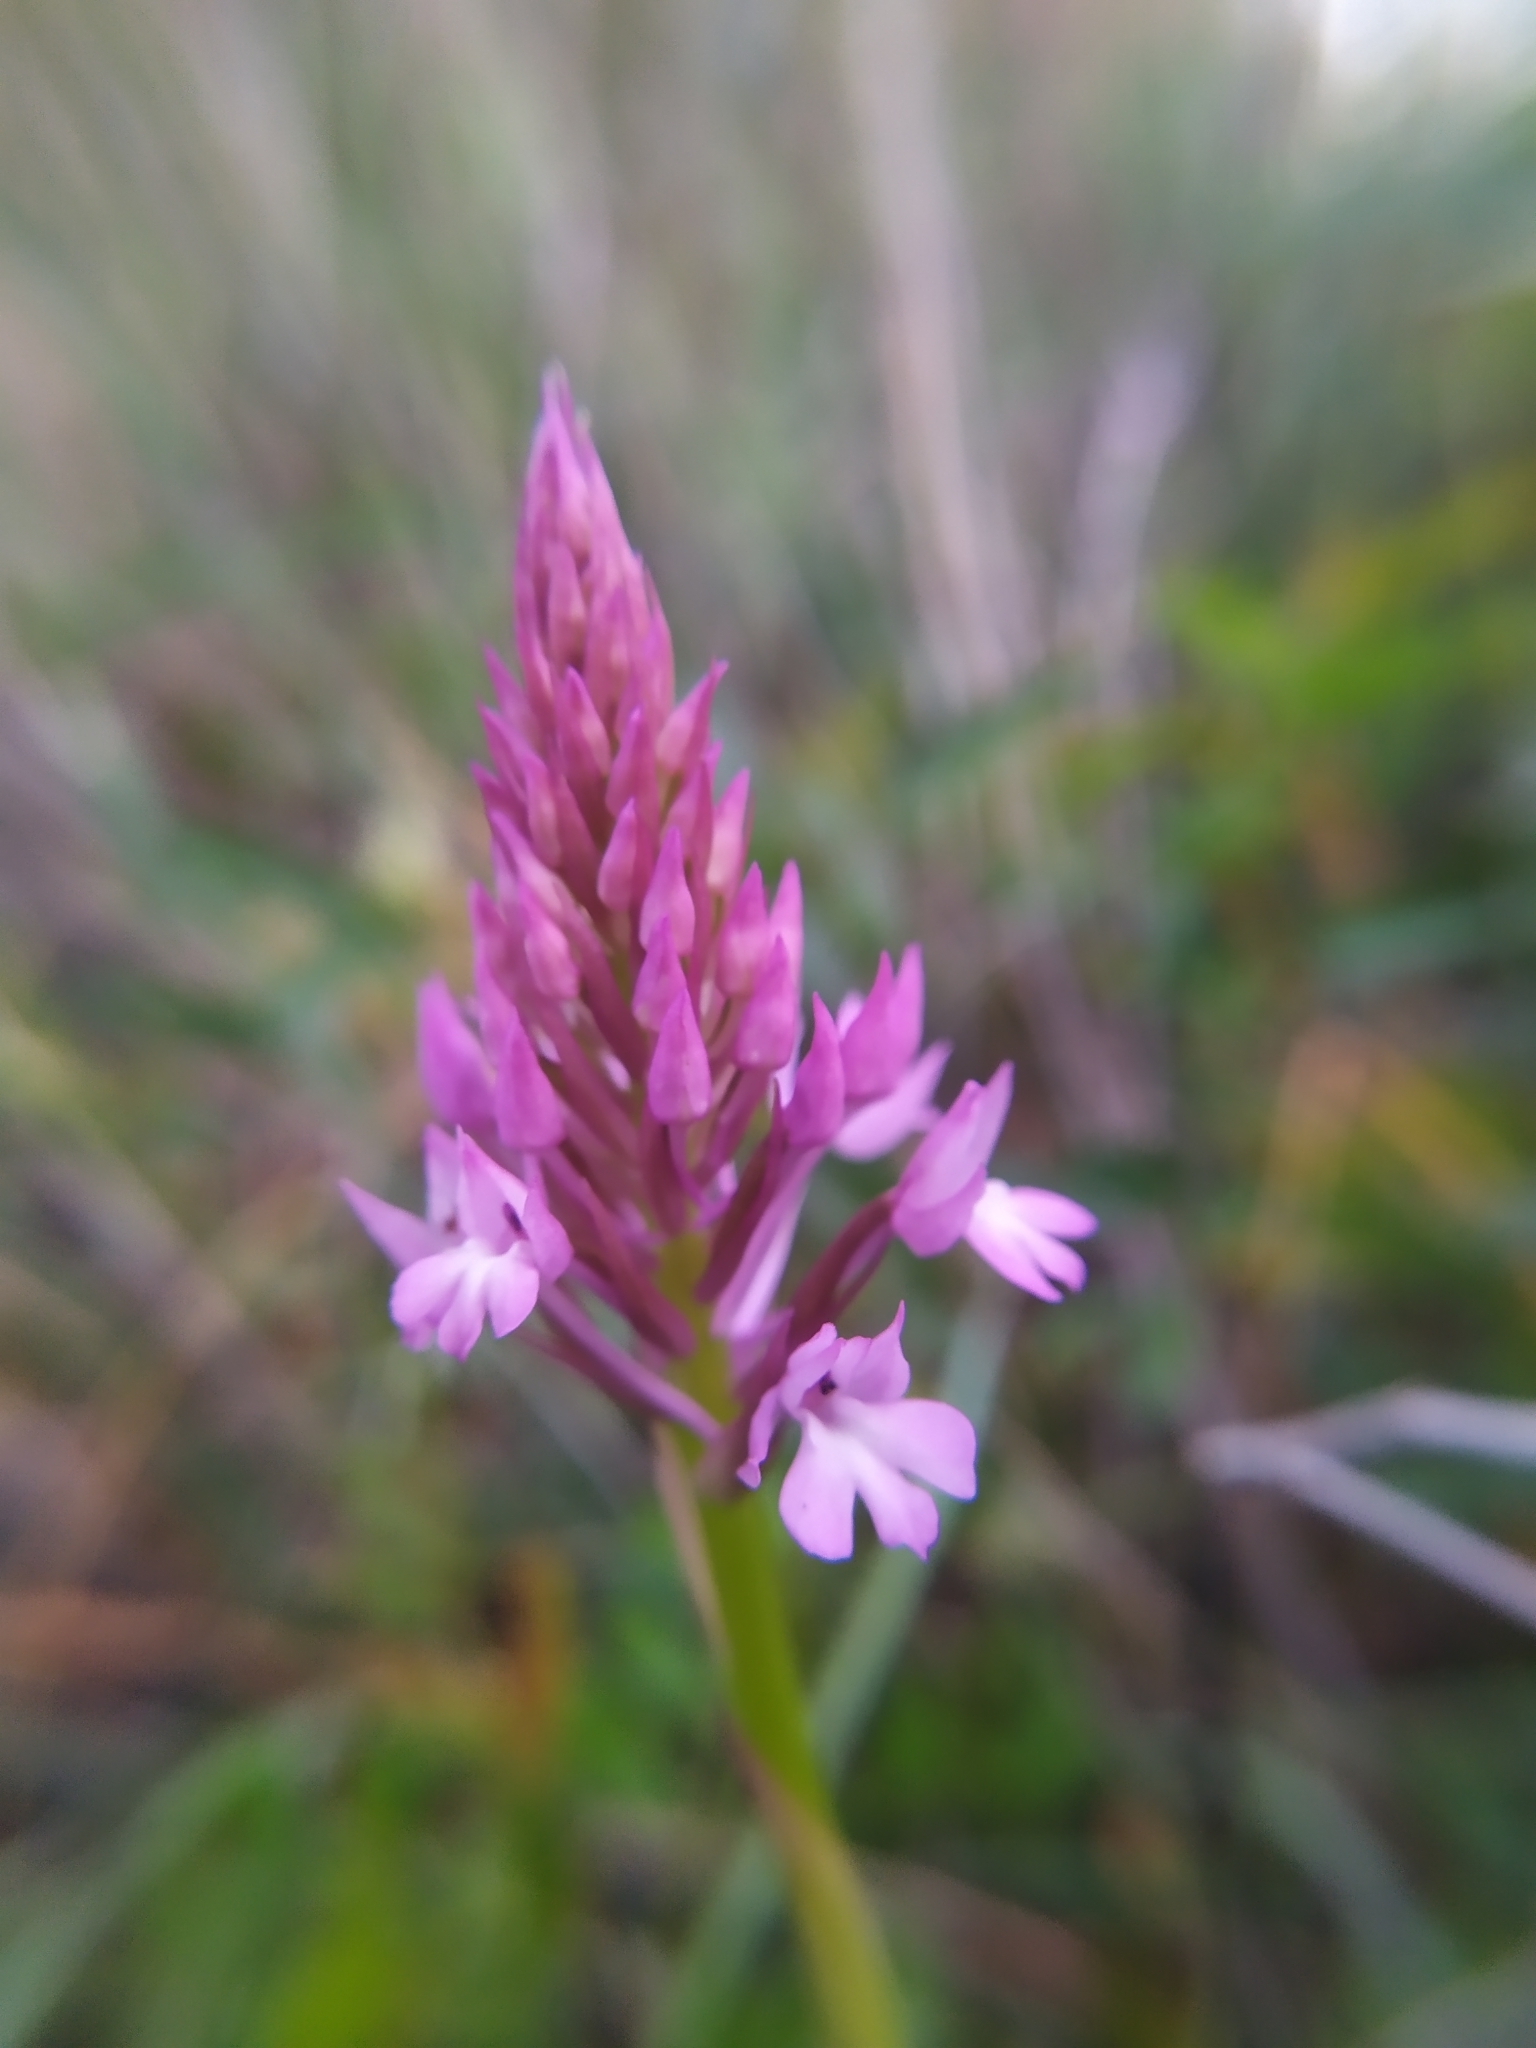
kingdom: Plantae
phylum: Tracheophyta
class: Liliopsida
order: Asparagales
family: Orchidaceae
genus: Anacamptis
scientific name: Anacamptis pyramidalis
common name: Pyramidal orchid
